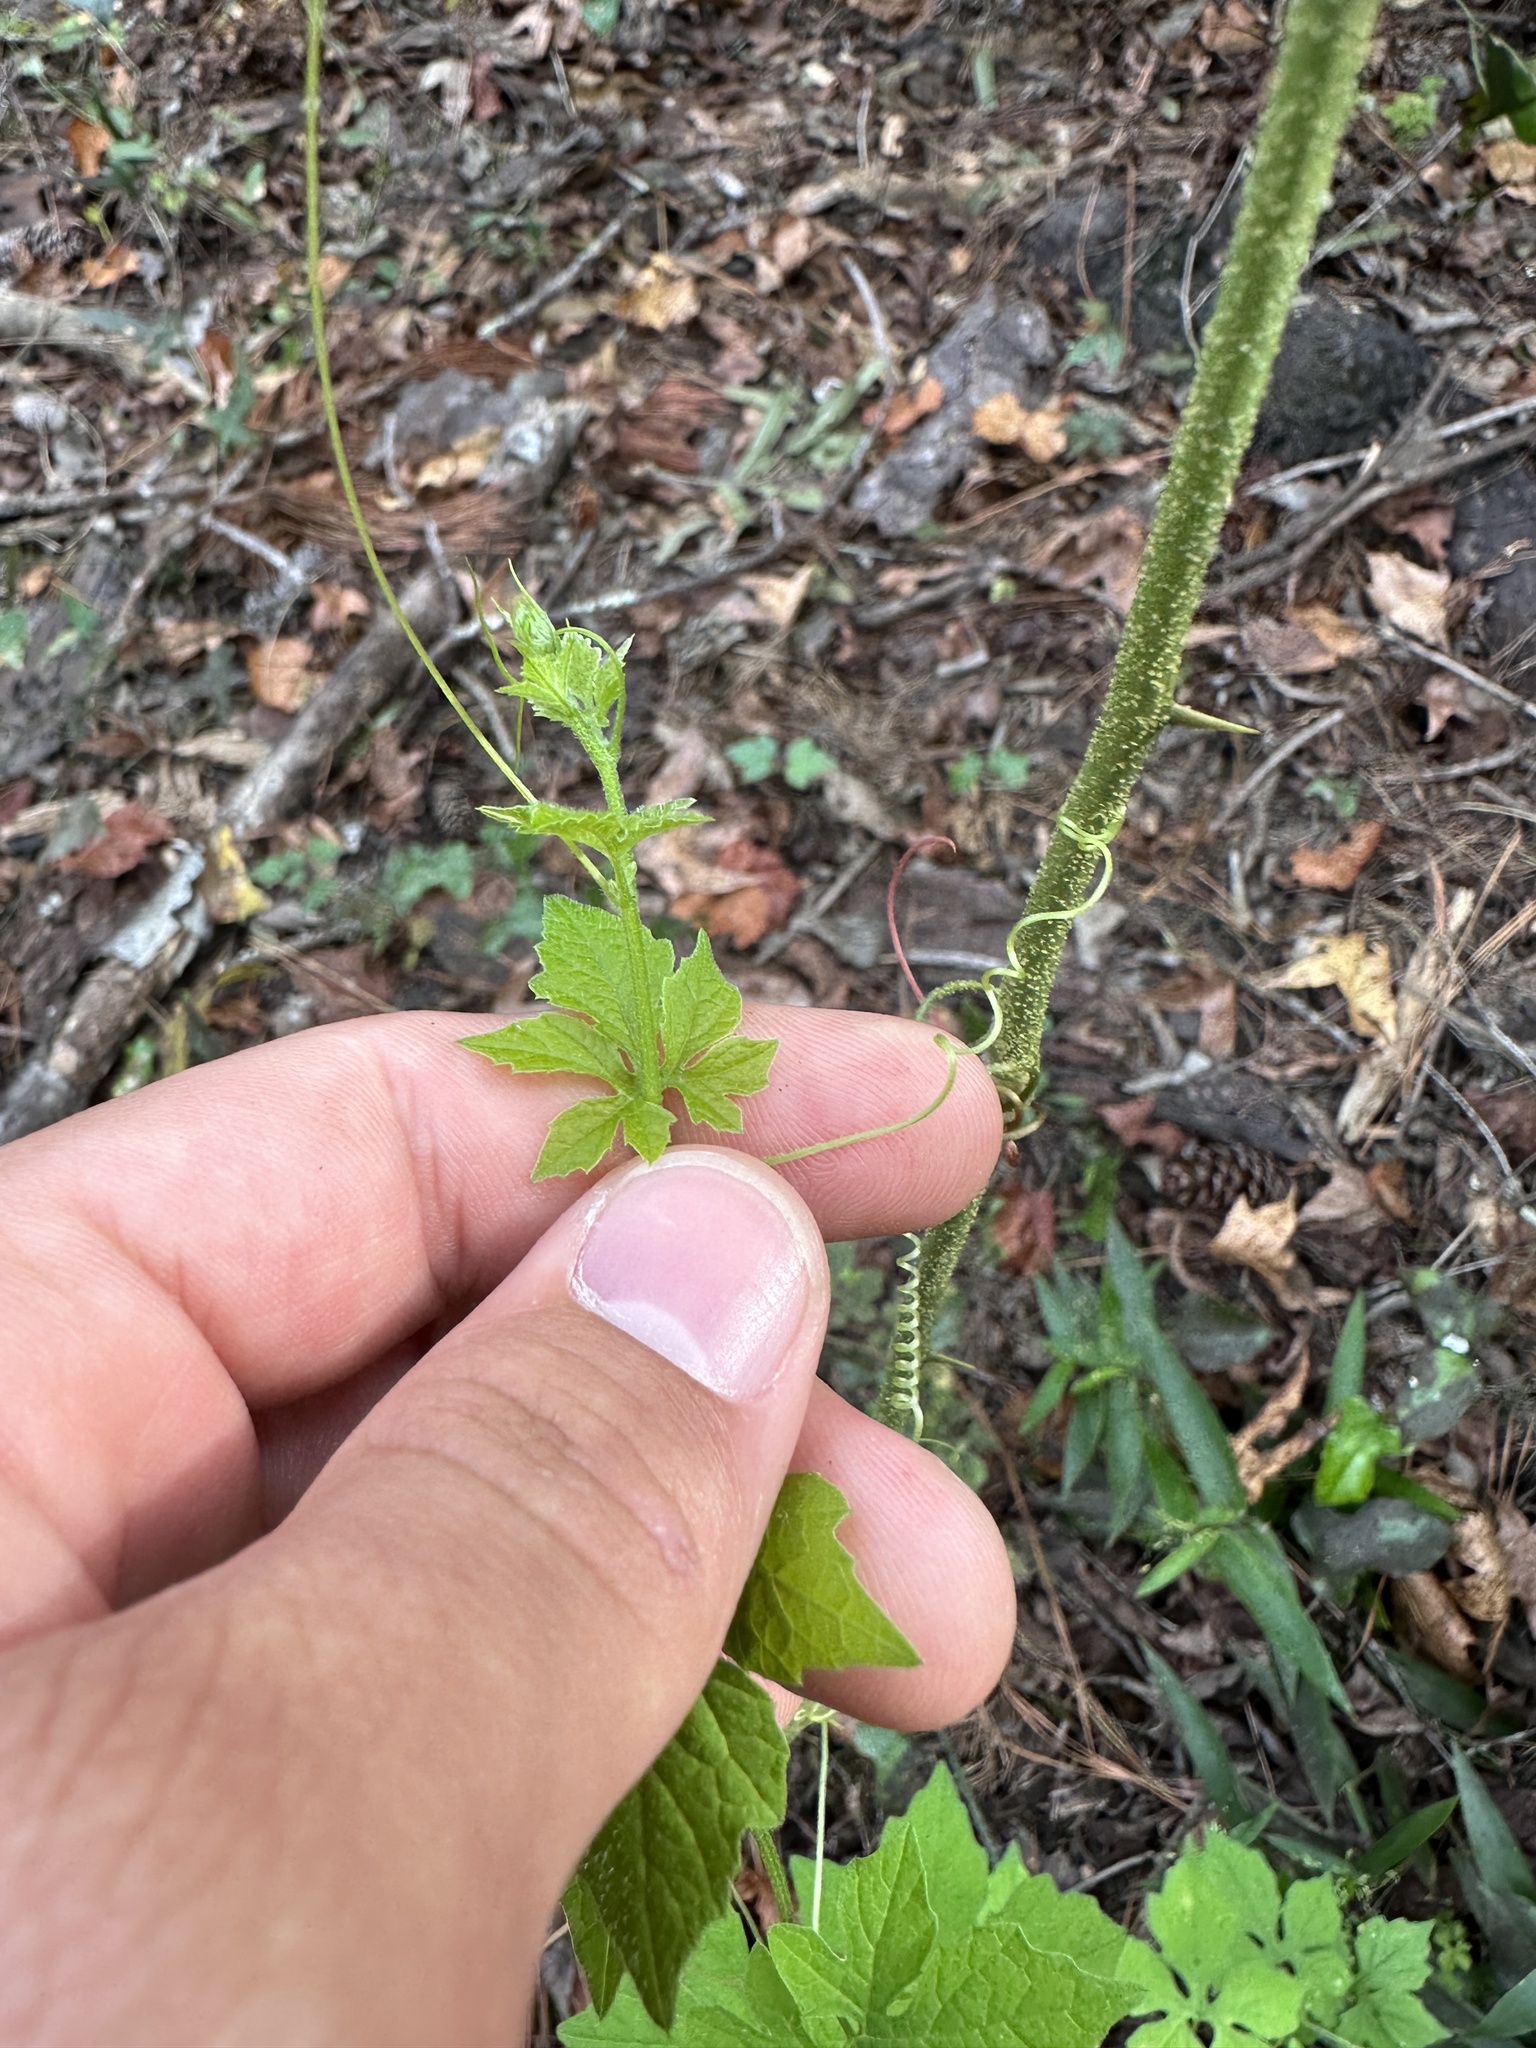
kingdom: Plantae
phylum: Tracheophyta
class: Magnoliopsida
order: Cucurbitales
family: Cucurbitaceae
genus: Momordica
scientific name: Momordica charantia
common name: Balsampear
